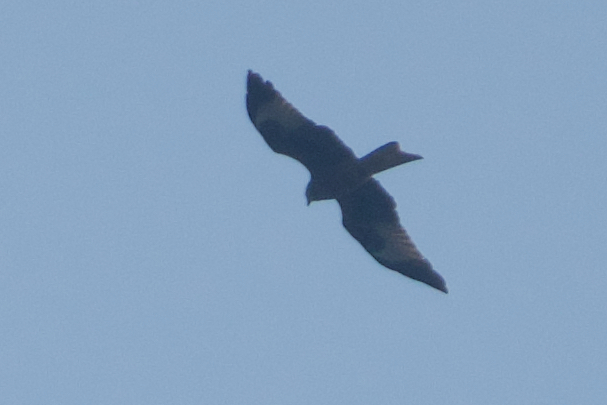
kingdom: Animalia
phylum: Chordata
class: Aves
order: Accipitriformes
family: Accipitridae
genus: Milvus
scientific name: Milvus milvus
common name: Red kite
